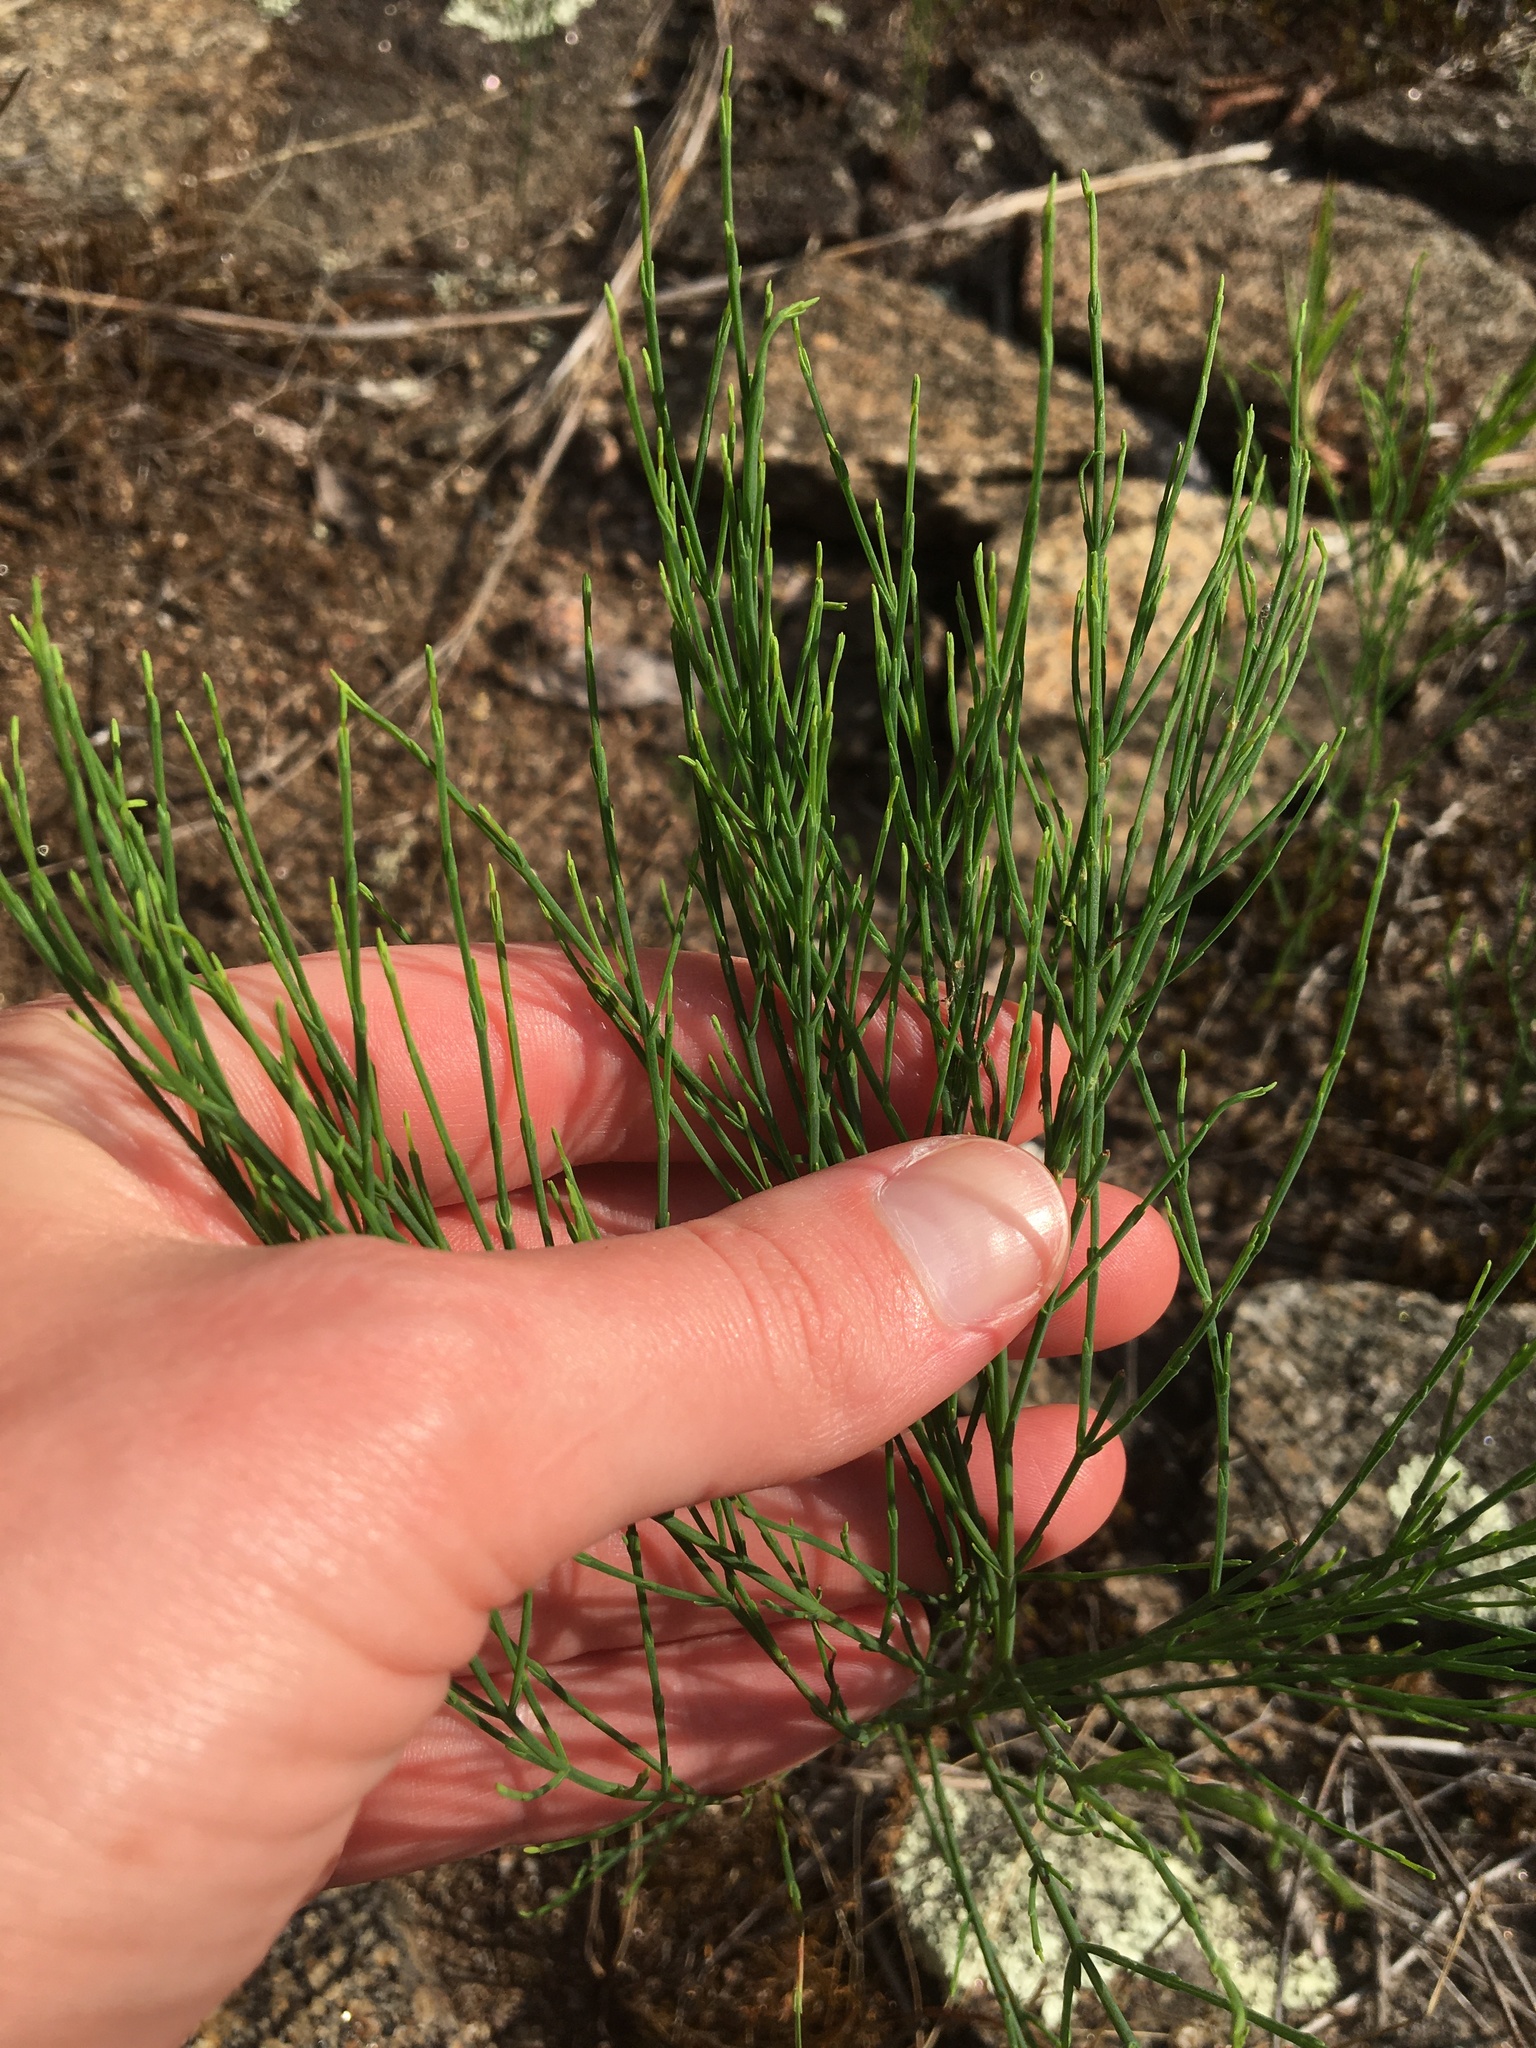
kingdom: Plantae
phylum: Tracheophyta
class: Magnoliopsida
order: Malpighiales
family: Hypericaceae
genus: Hypericum
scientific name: Hypericum gentianoides
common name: Gentian-leaved st. john's-wort
